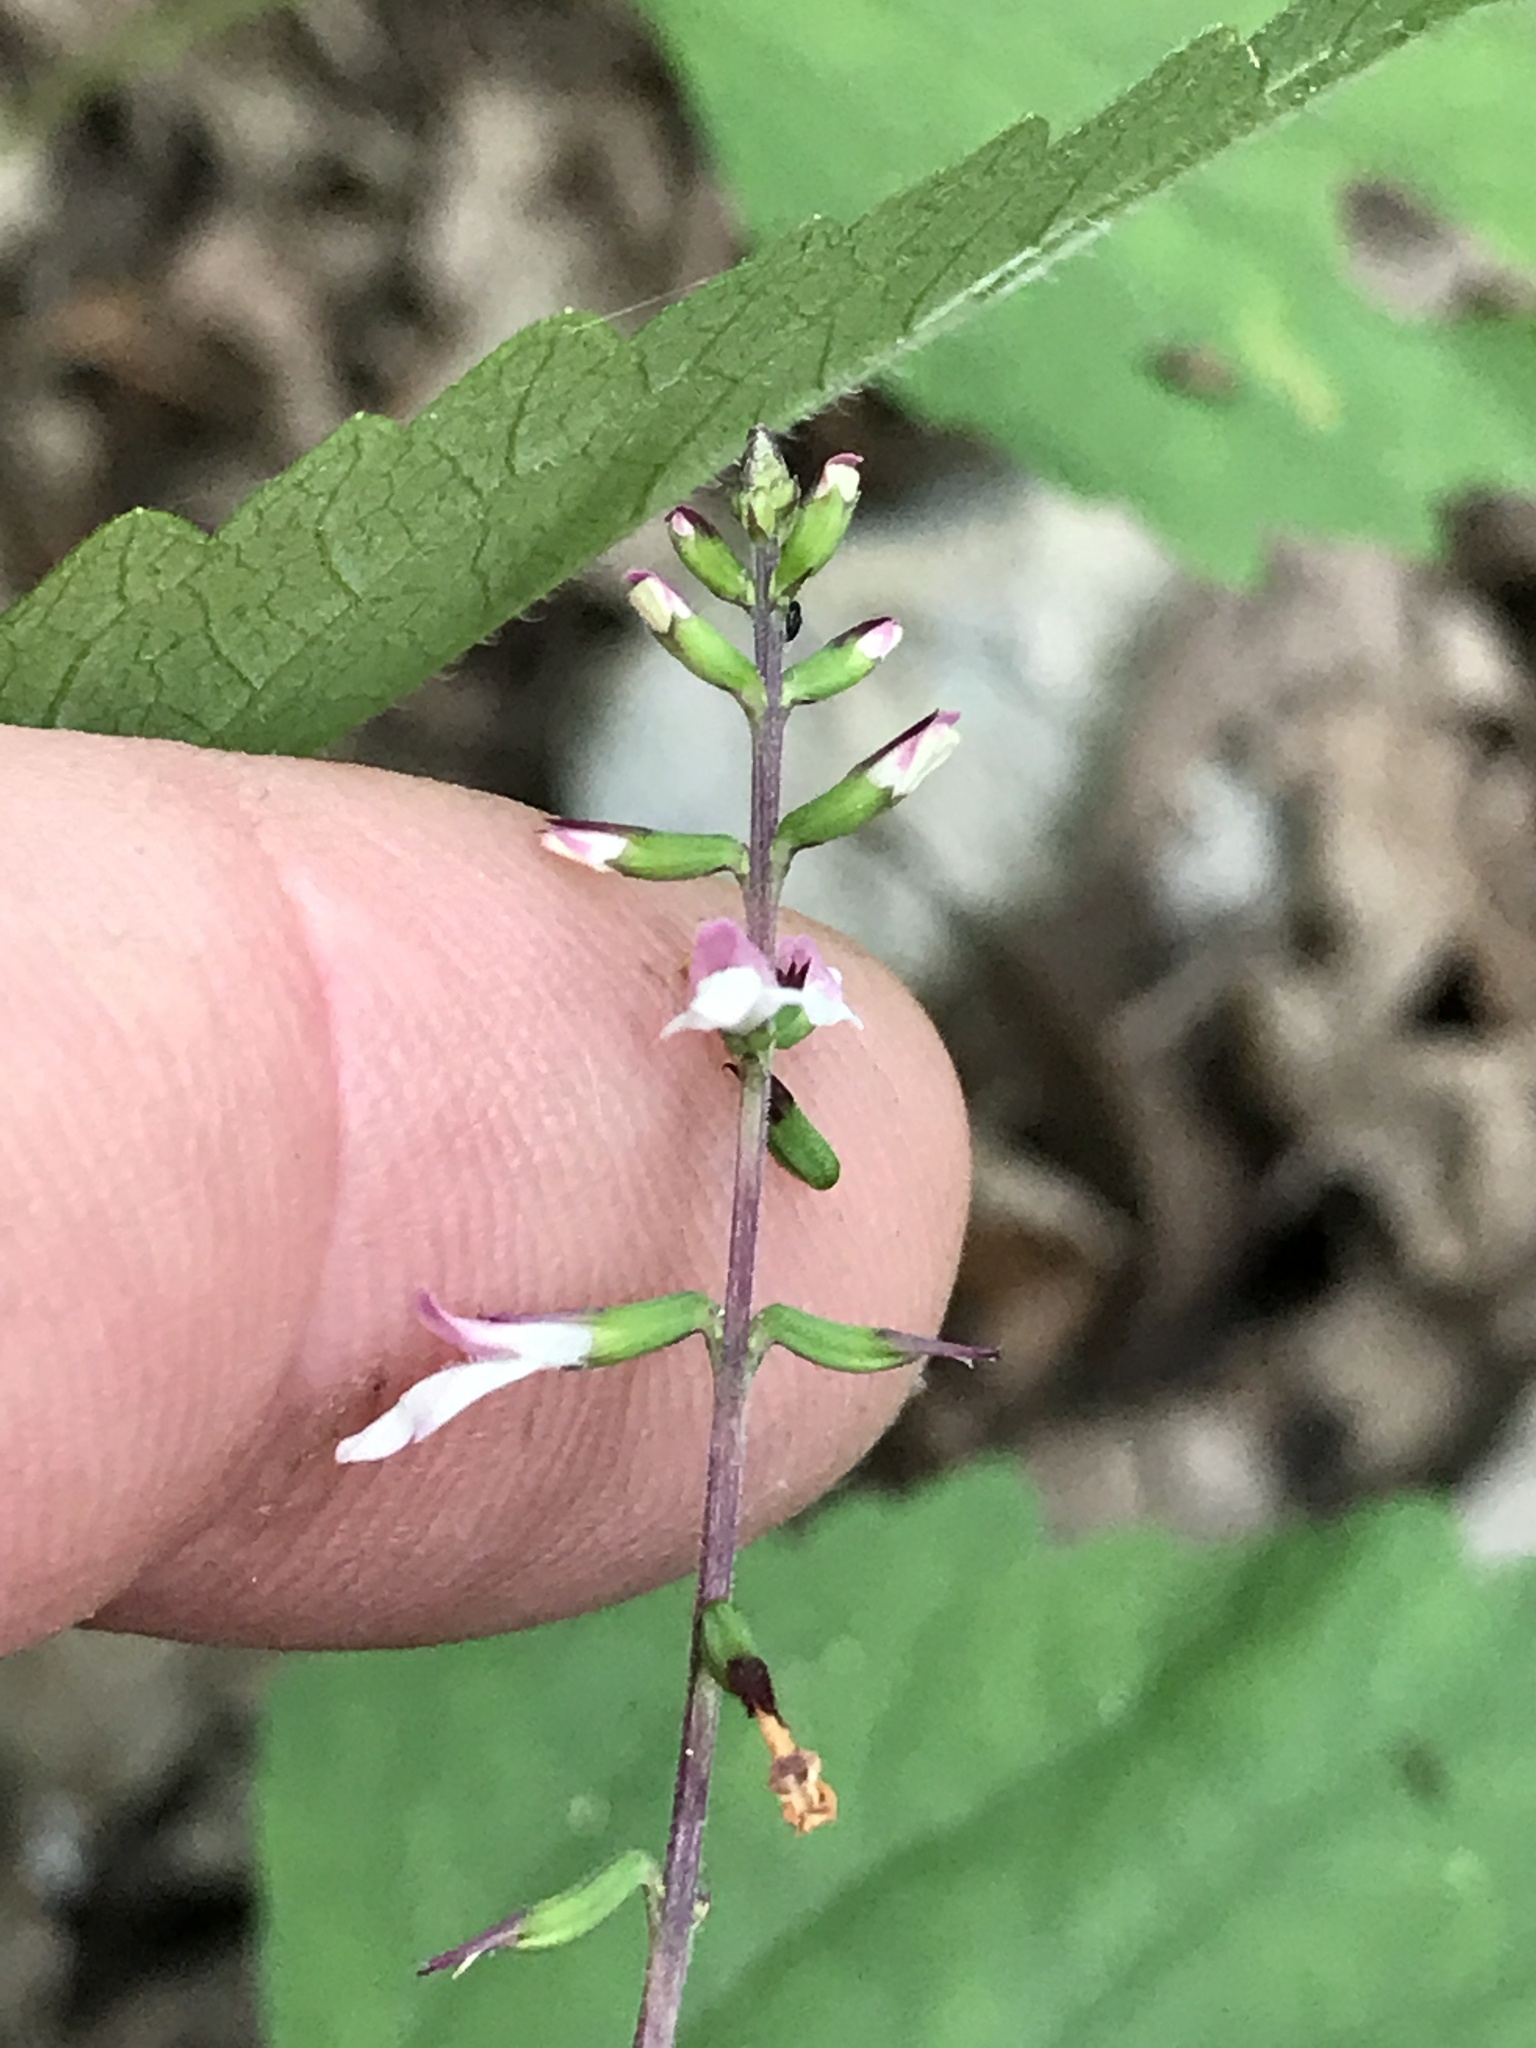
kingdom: Plantae
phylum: Tracheophyta
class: Magnoliopsida
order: Lamiales
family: Phrymaceae
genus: Phryma
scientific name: Phryma leptostachya
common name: American lopseed
